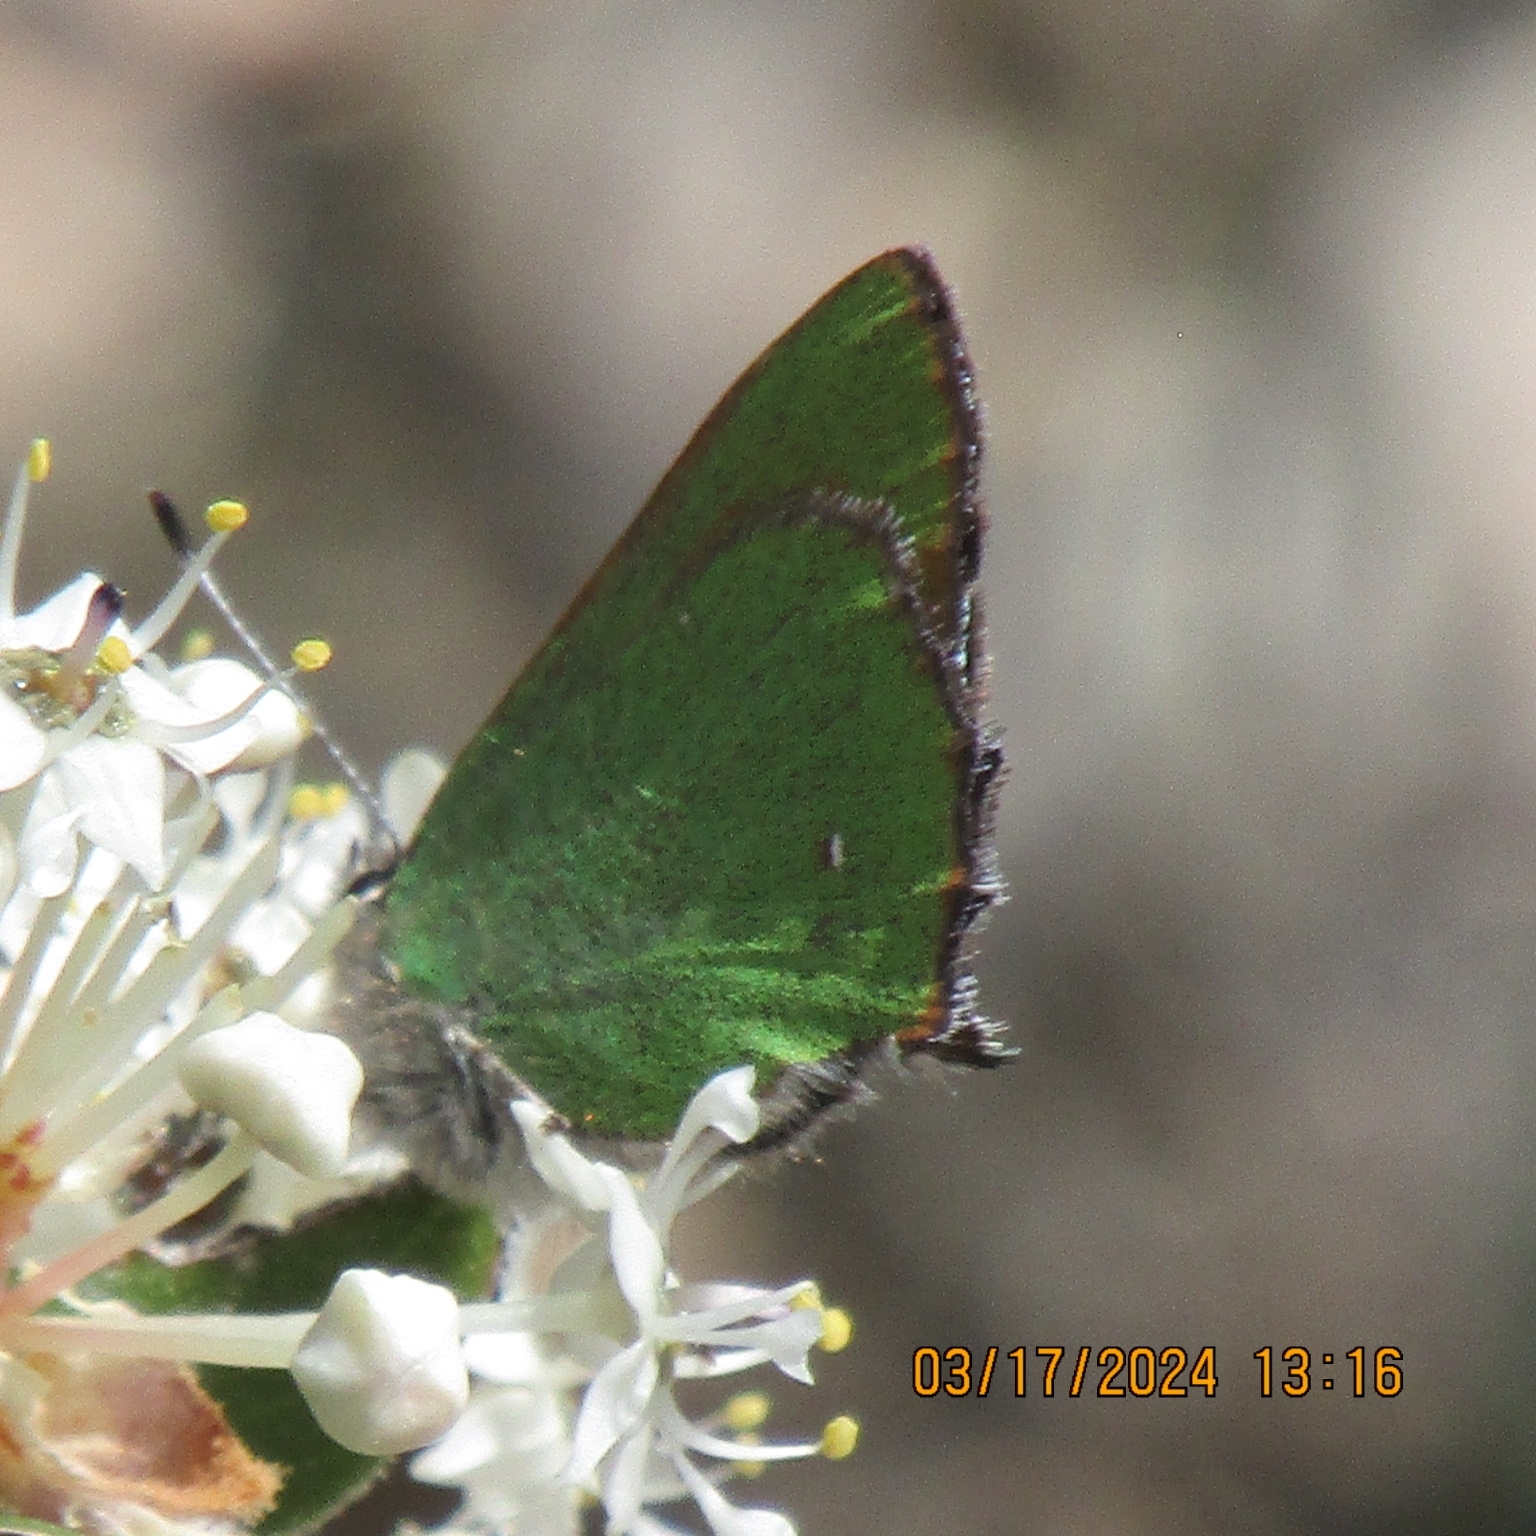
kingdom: Animalia
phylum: Arthropoda
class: Insecta
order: Lepidoptera
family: Lycaenidae
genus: Callophrys
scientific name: Callophrys dumetorum
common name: Bramble hairstreak
